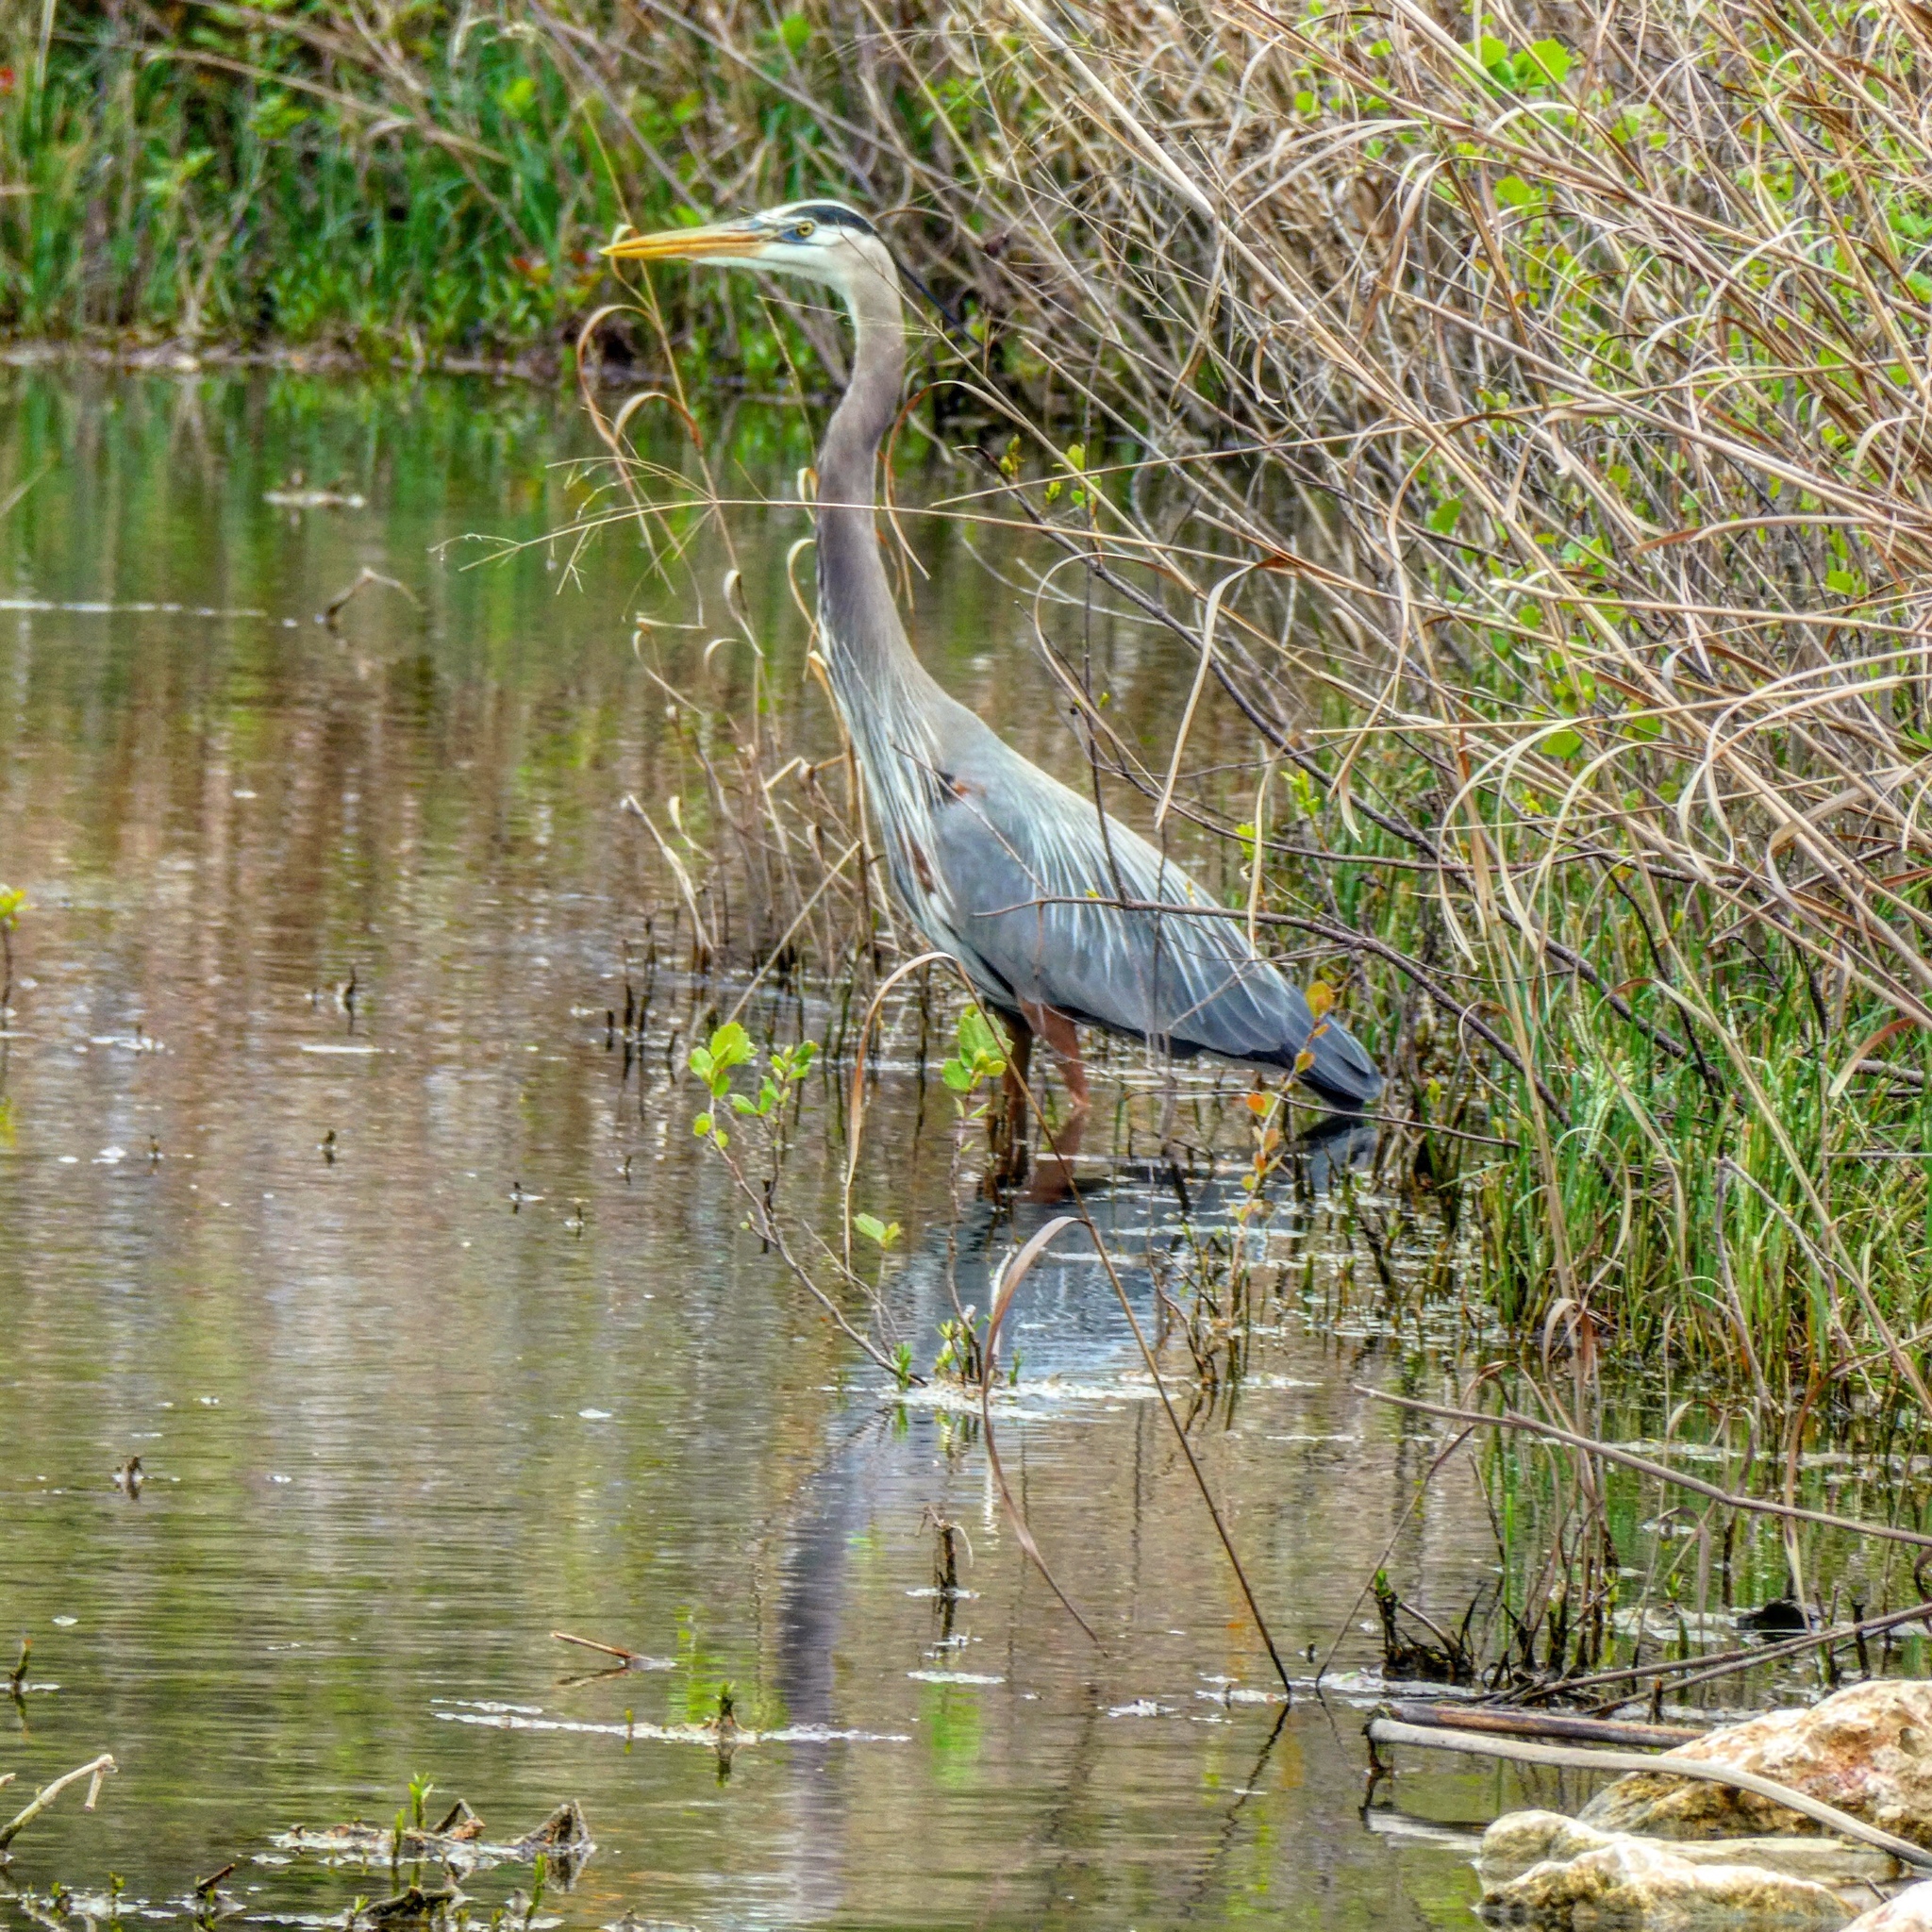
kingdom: Animalia
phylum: Chordata
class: Aves
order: Pelecaniformes
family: Ardeidae
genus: Ardea
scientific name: Ardea herodias
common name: Great blue heron
